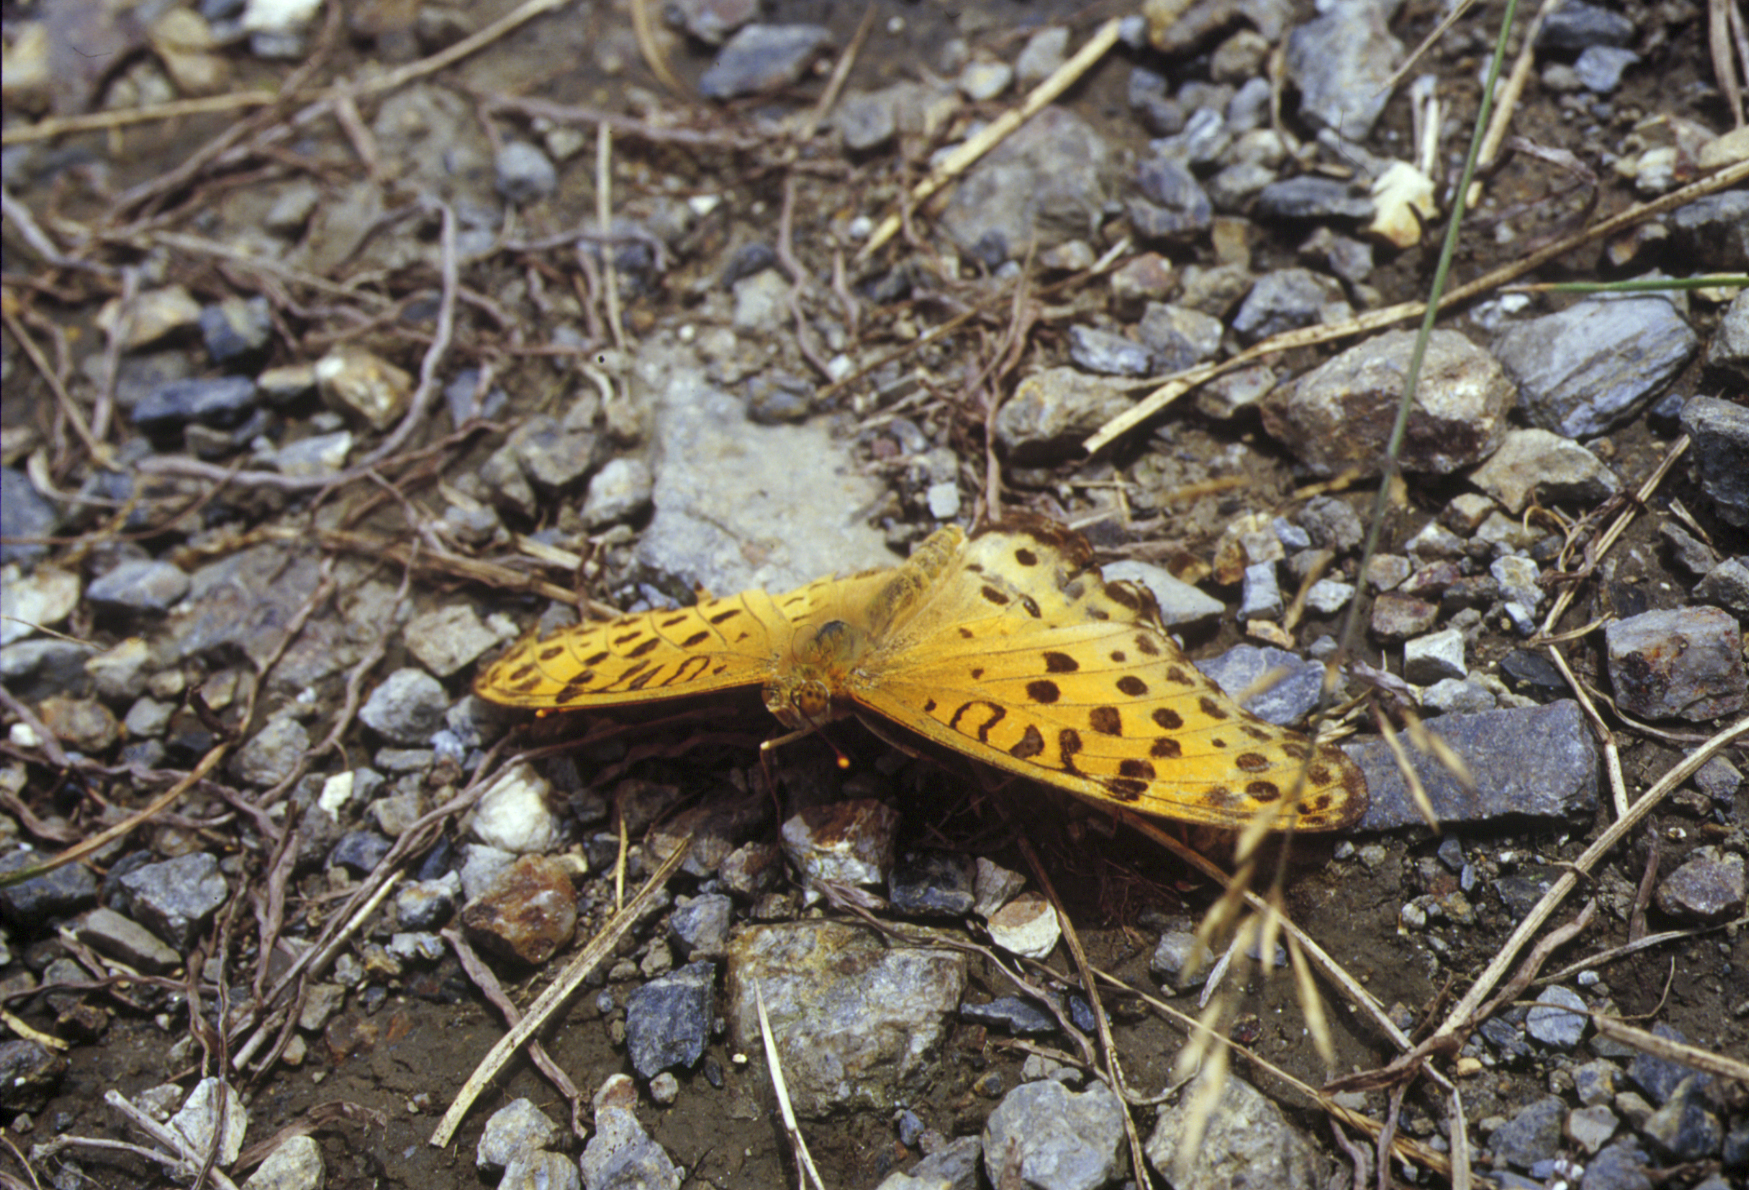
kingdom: Animalia
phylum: Arthropoda
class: Insecta
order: Lepidoptera
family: Nymphalidae
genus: Argynnis
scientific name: Argynnis hyperbius
